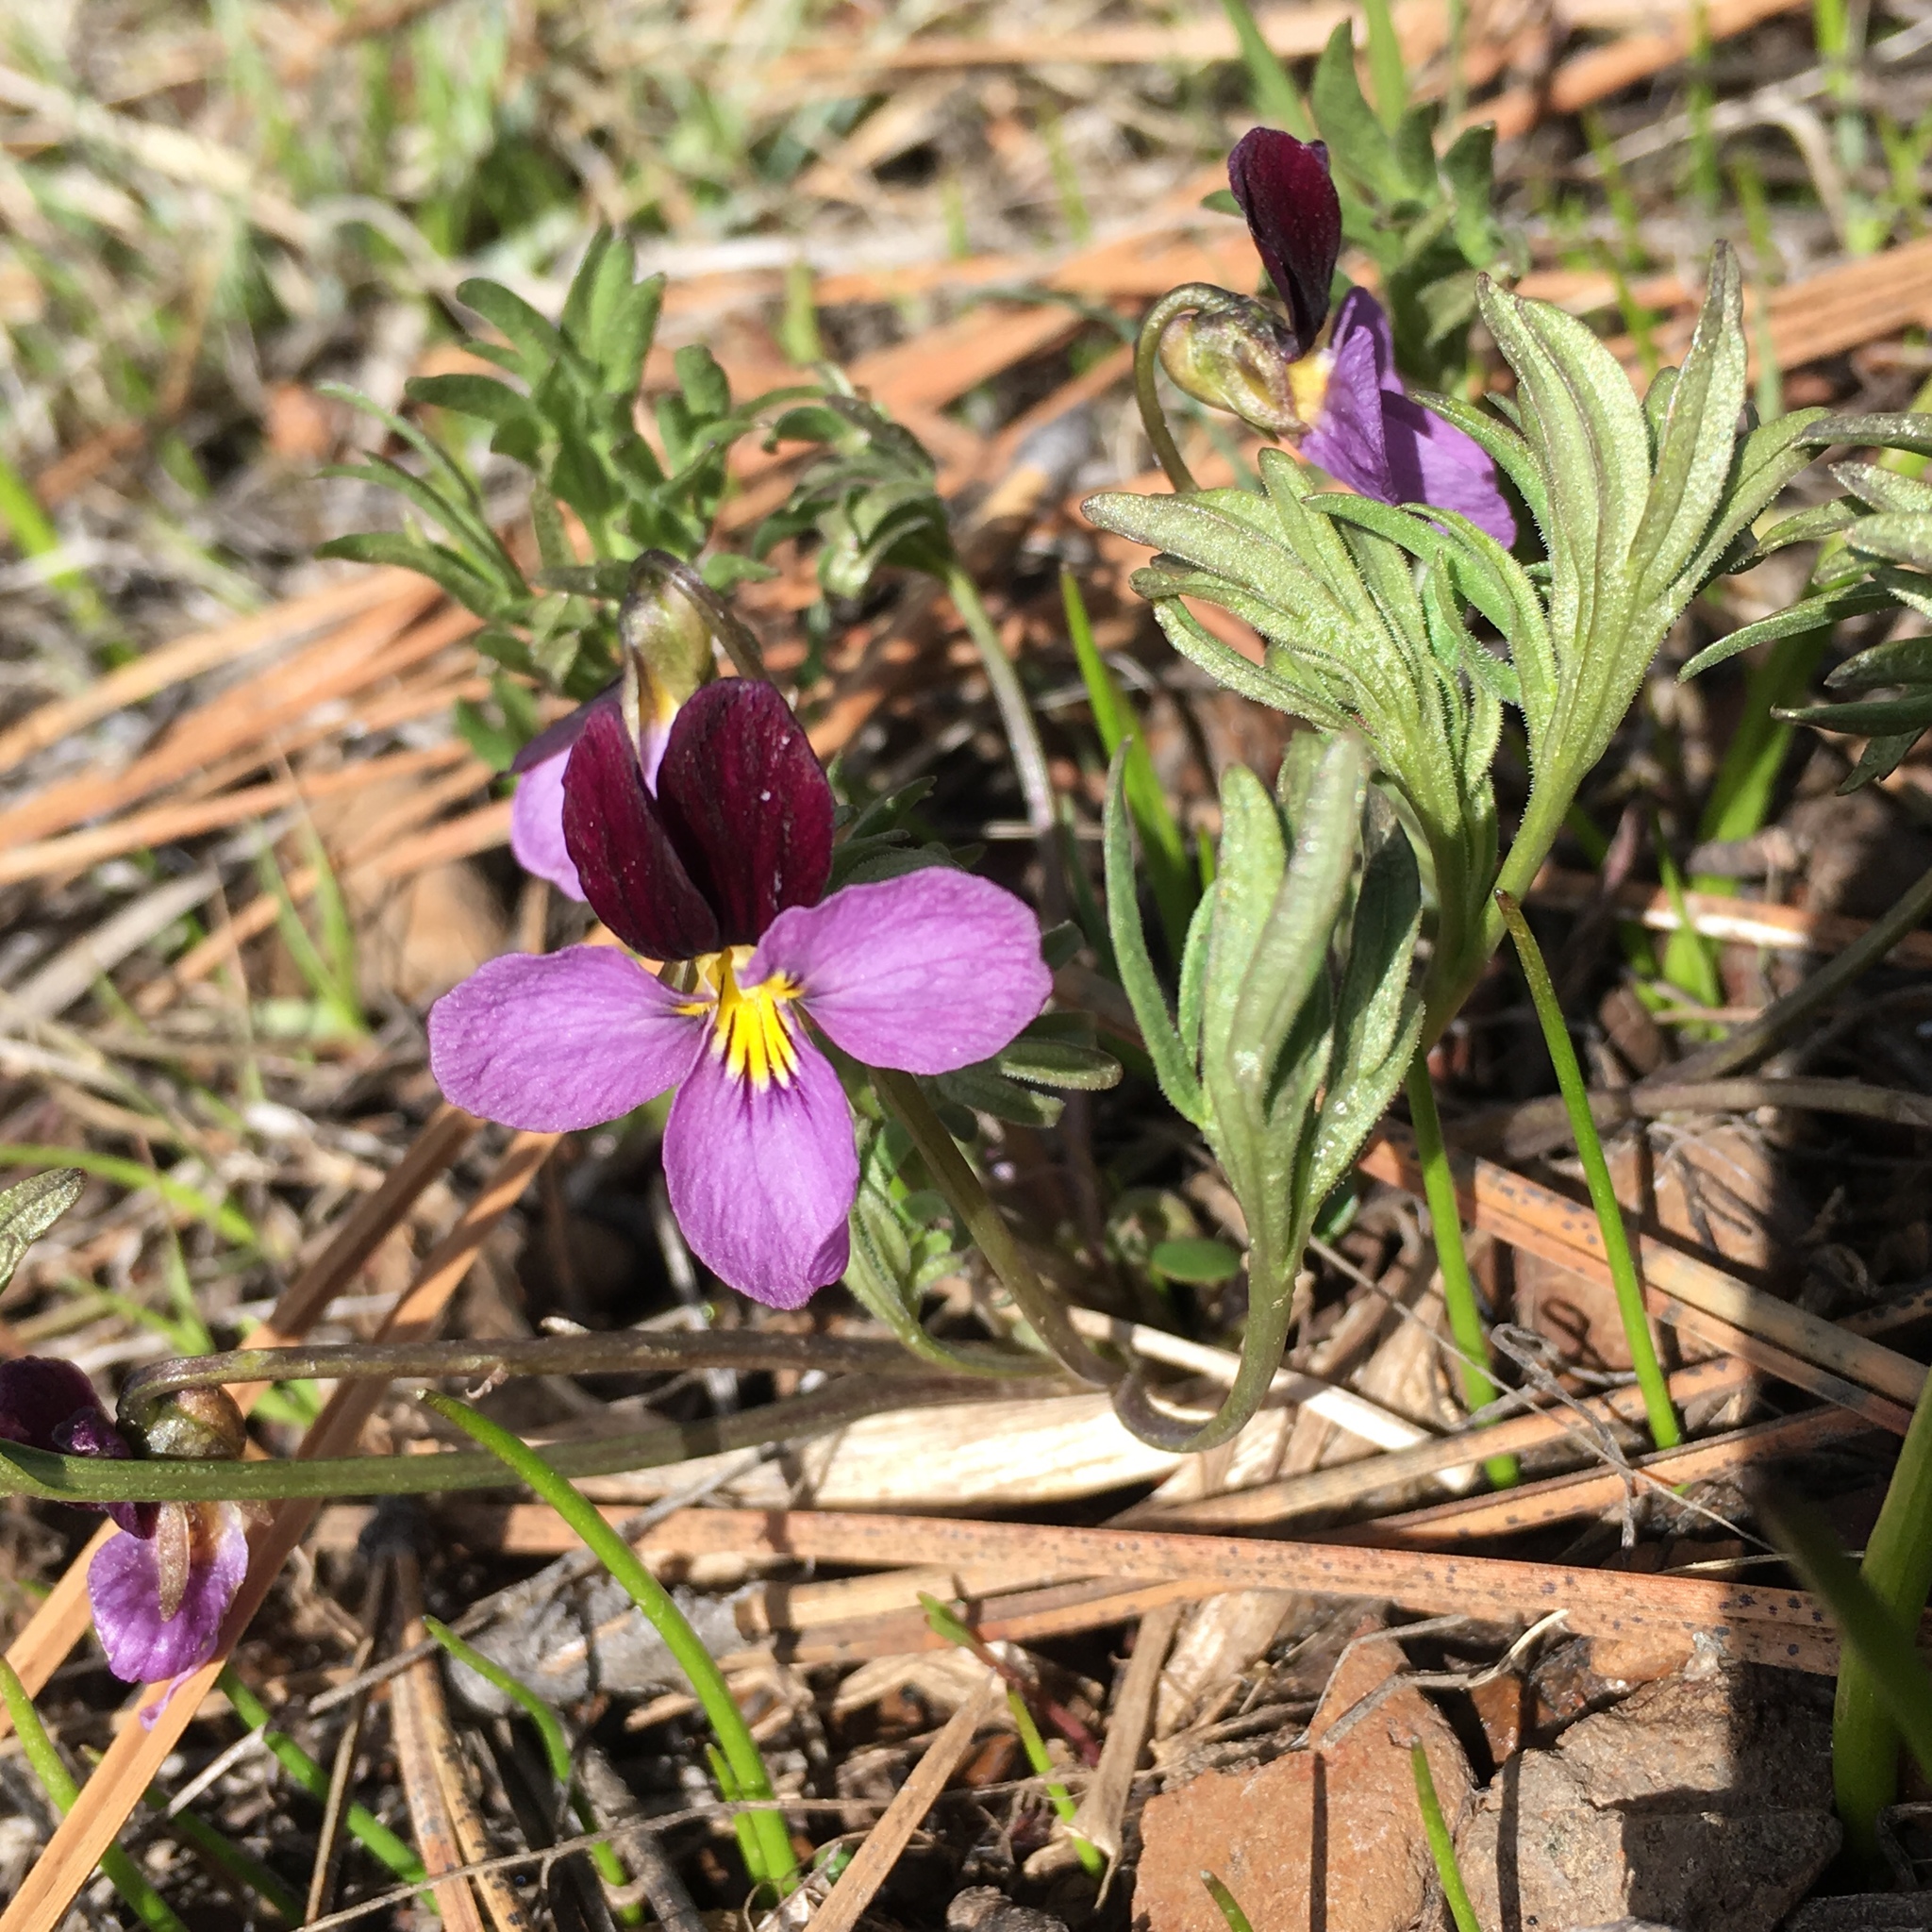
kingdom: Plantae
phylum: Tracheophyta
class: Magnoliopsida
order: Malpighiales
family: Violaceae
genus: Viola
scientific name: Viola beckwithii
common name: Beckwith's violet
